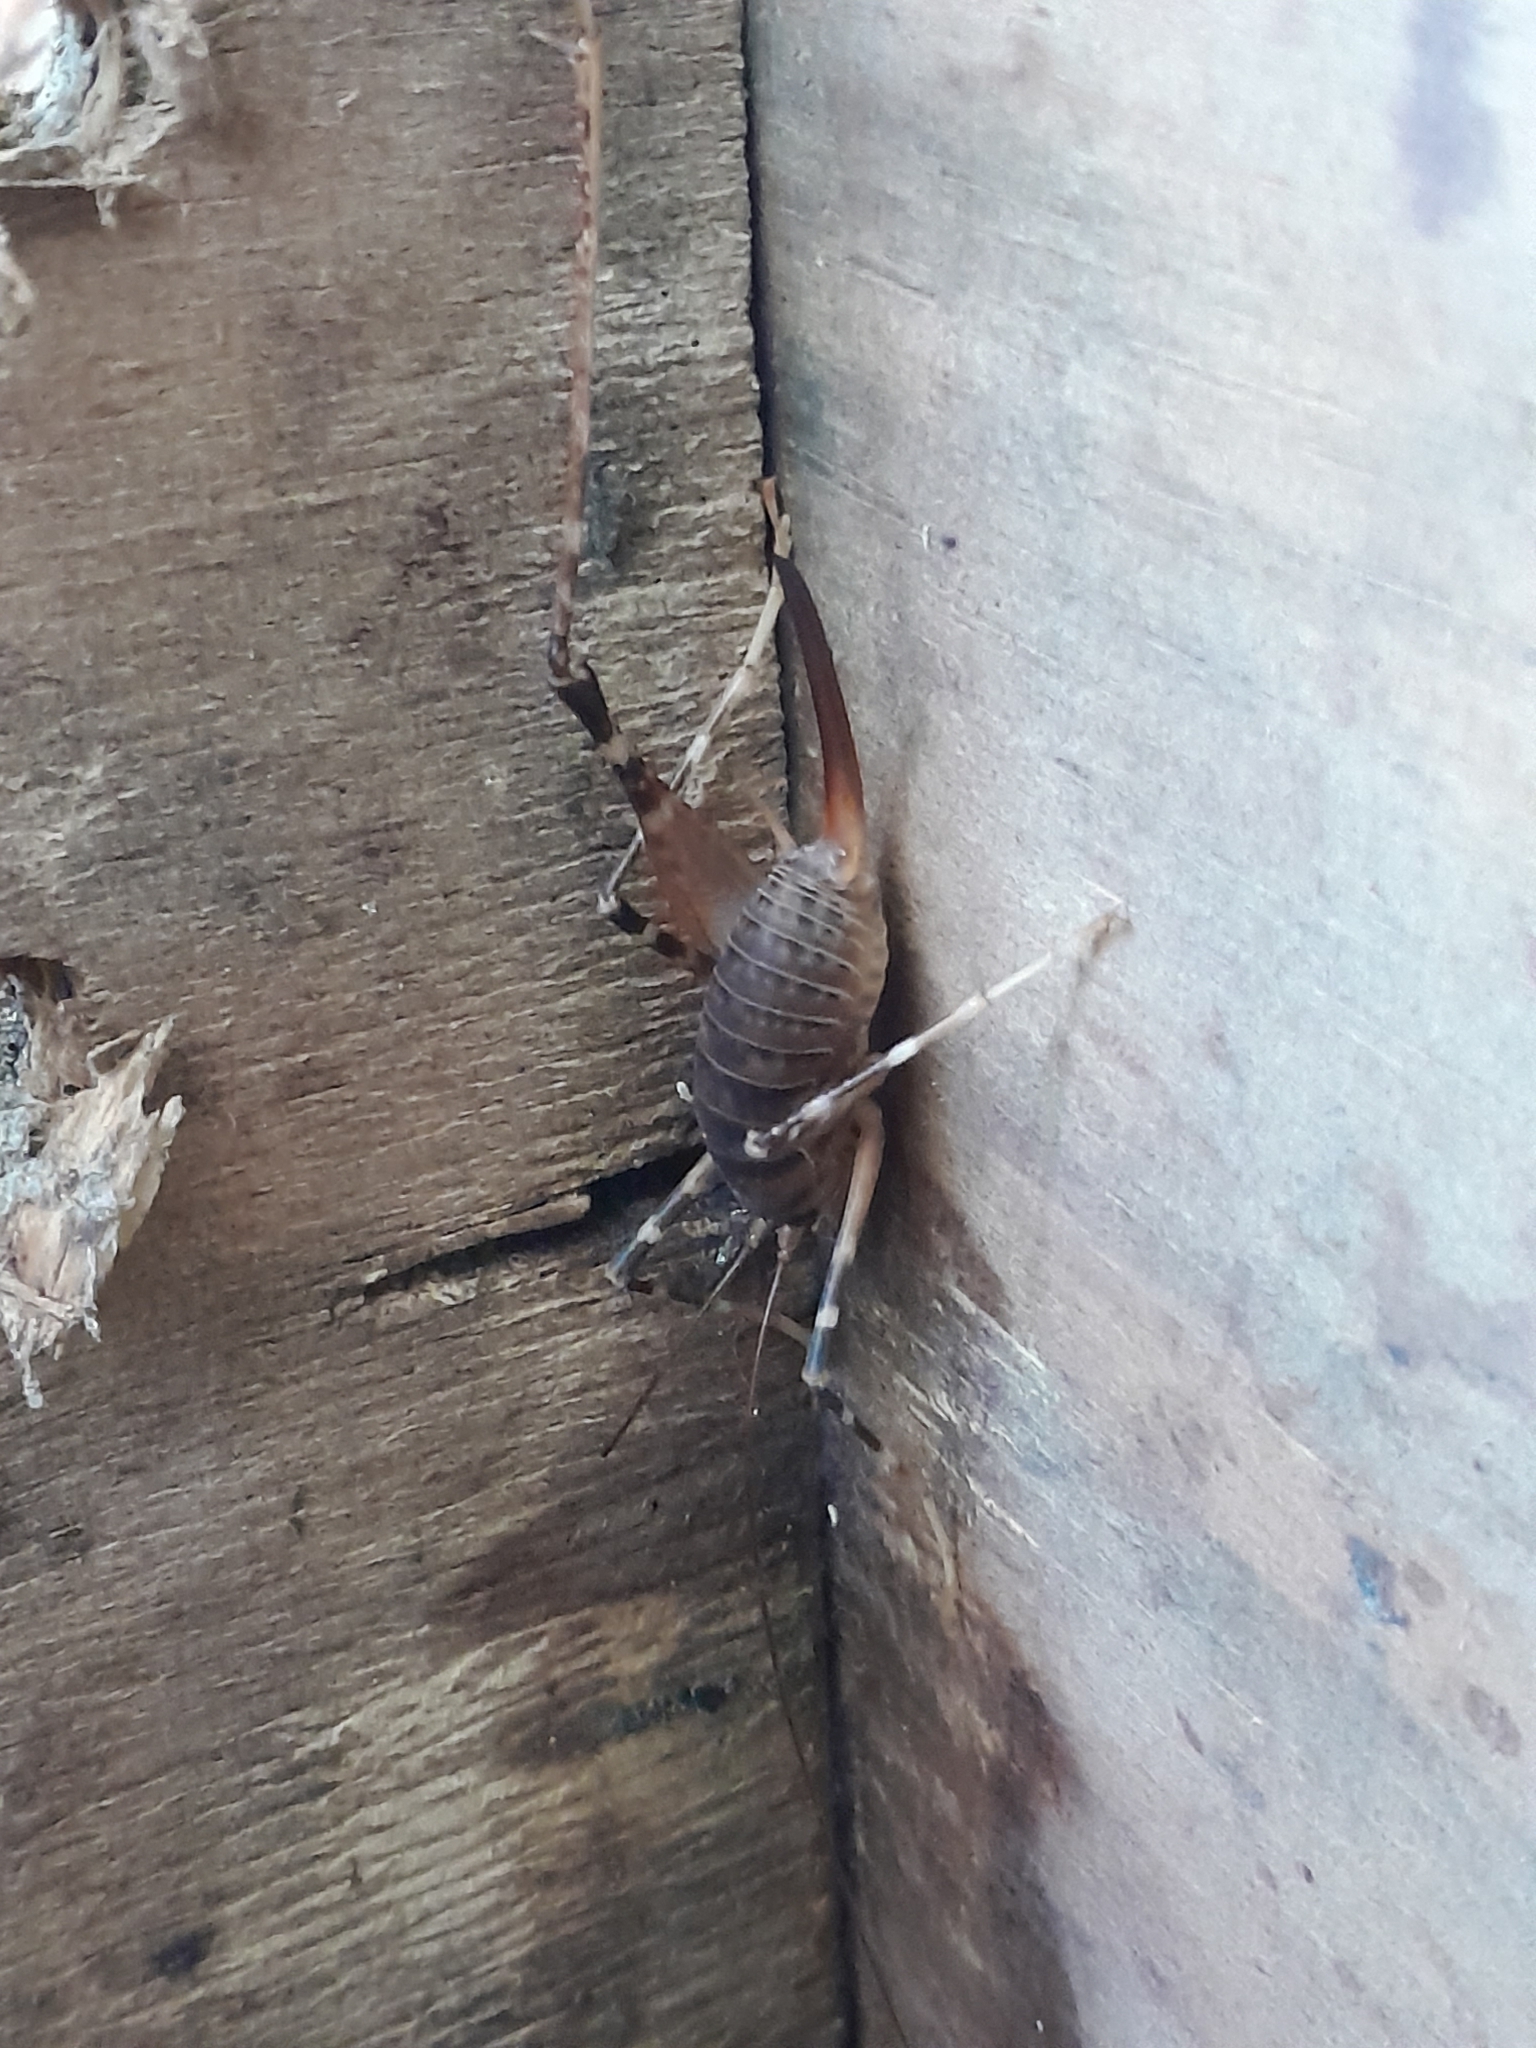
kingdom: Animalia
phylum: Arthropoda
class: Insecta
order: Orthoptera
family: Rhaphidophoridae
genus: Pachyrhamma
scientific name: Pachyrhamma edwardsii
